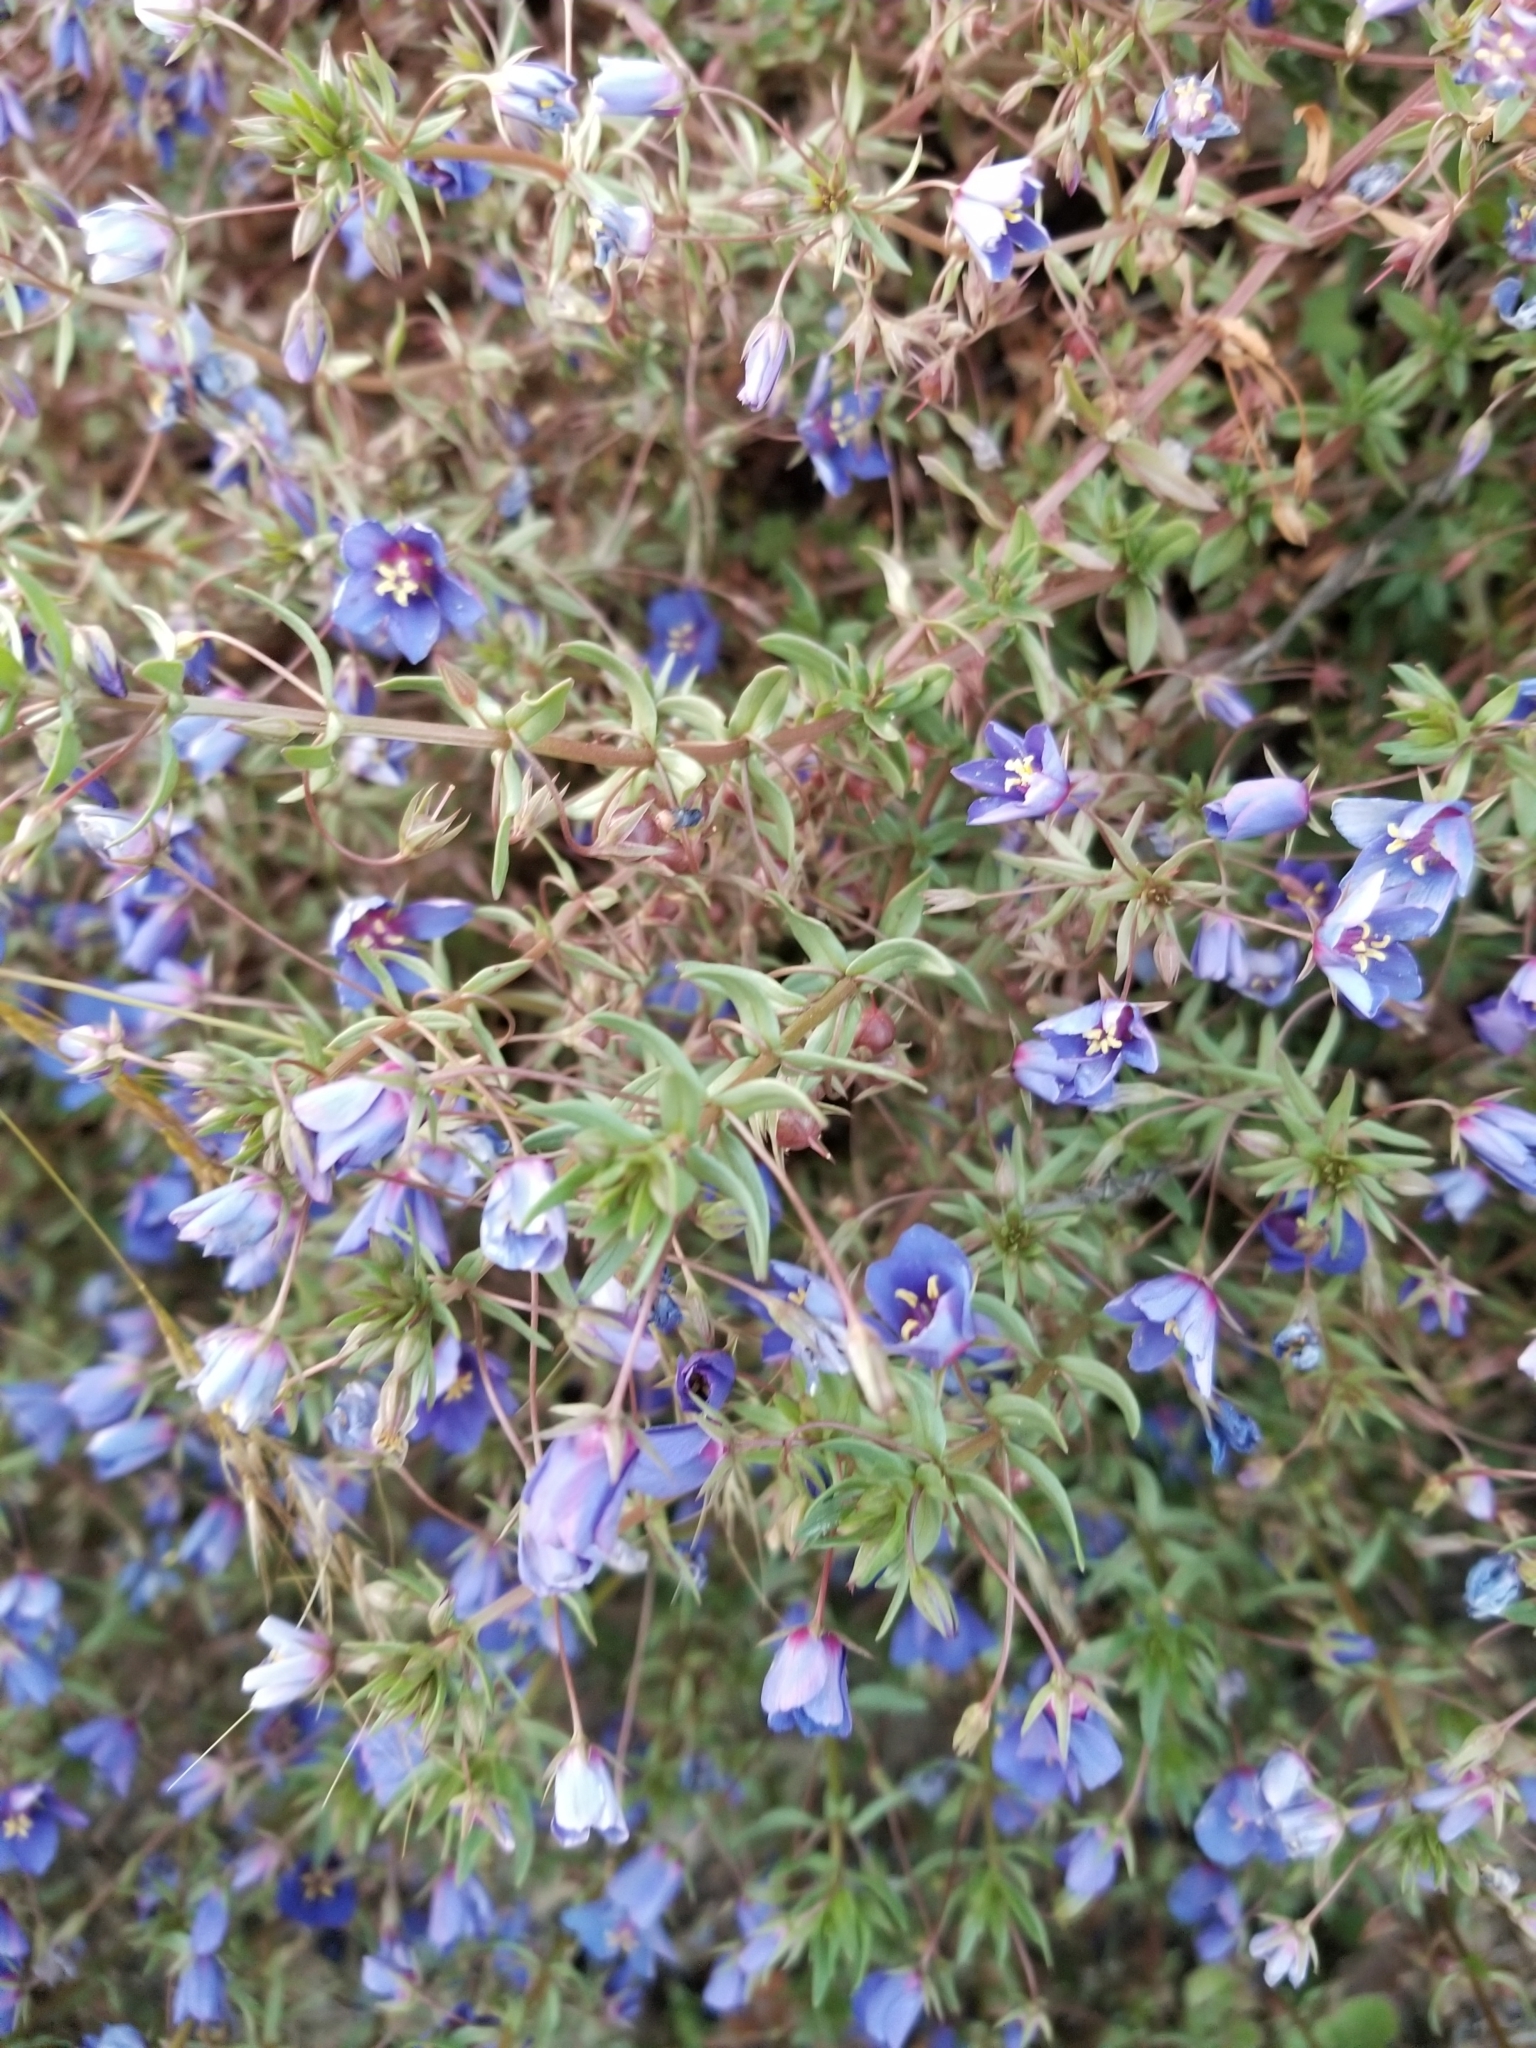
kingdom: Plantae
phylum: Tracheophyta
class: Magnoliopsida
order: Ericales
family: Primulaceae
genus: Lysimachia
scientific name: Lysimachia monelli
